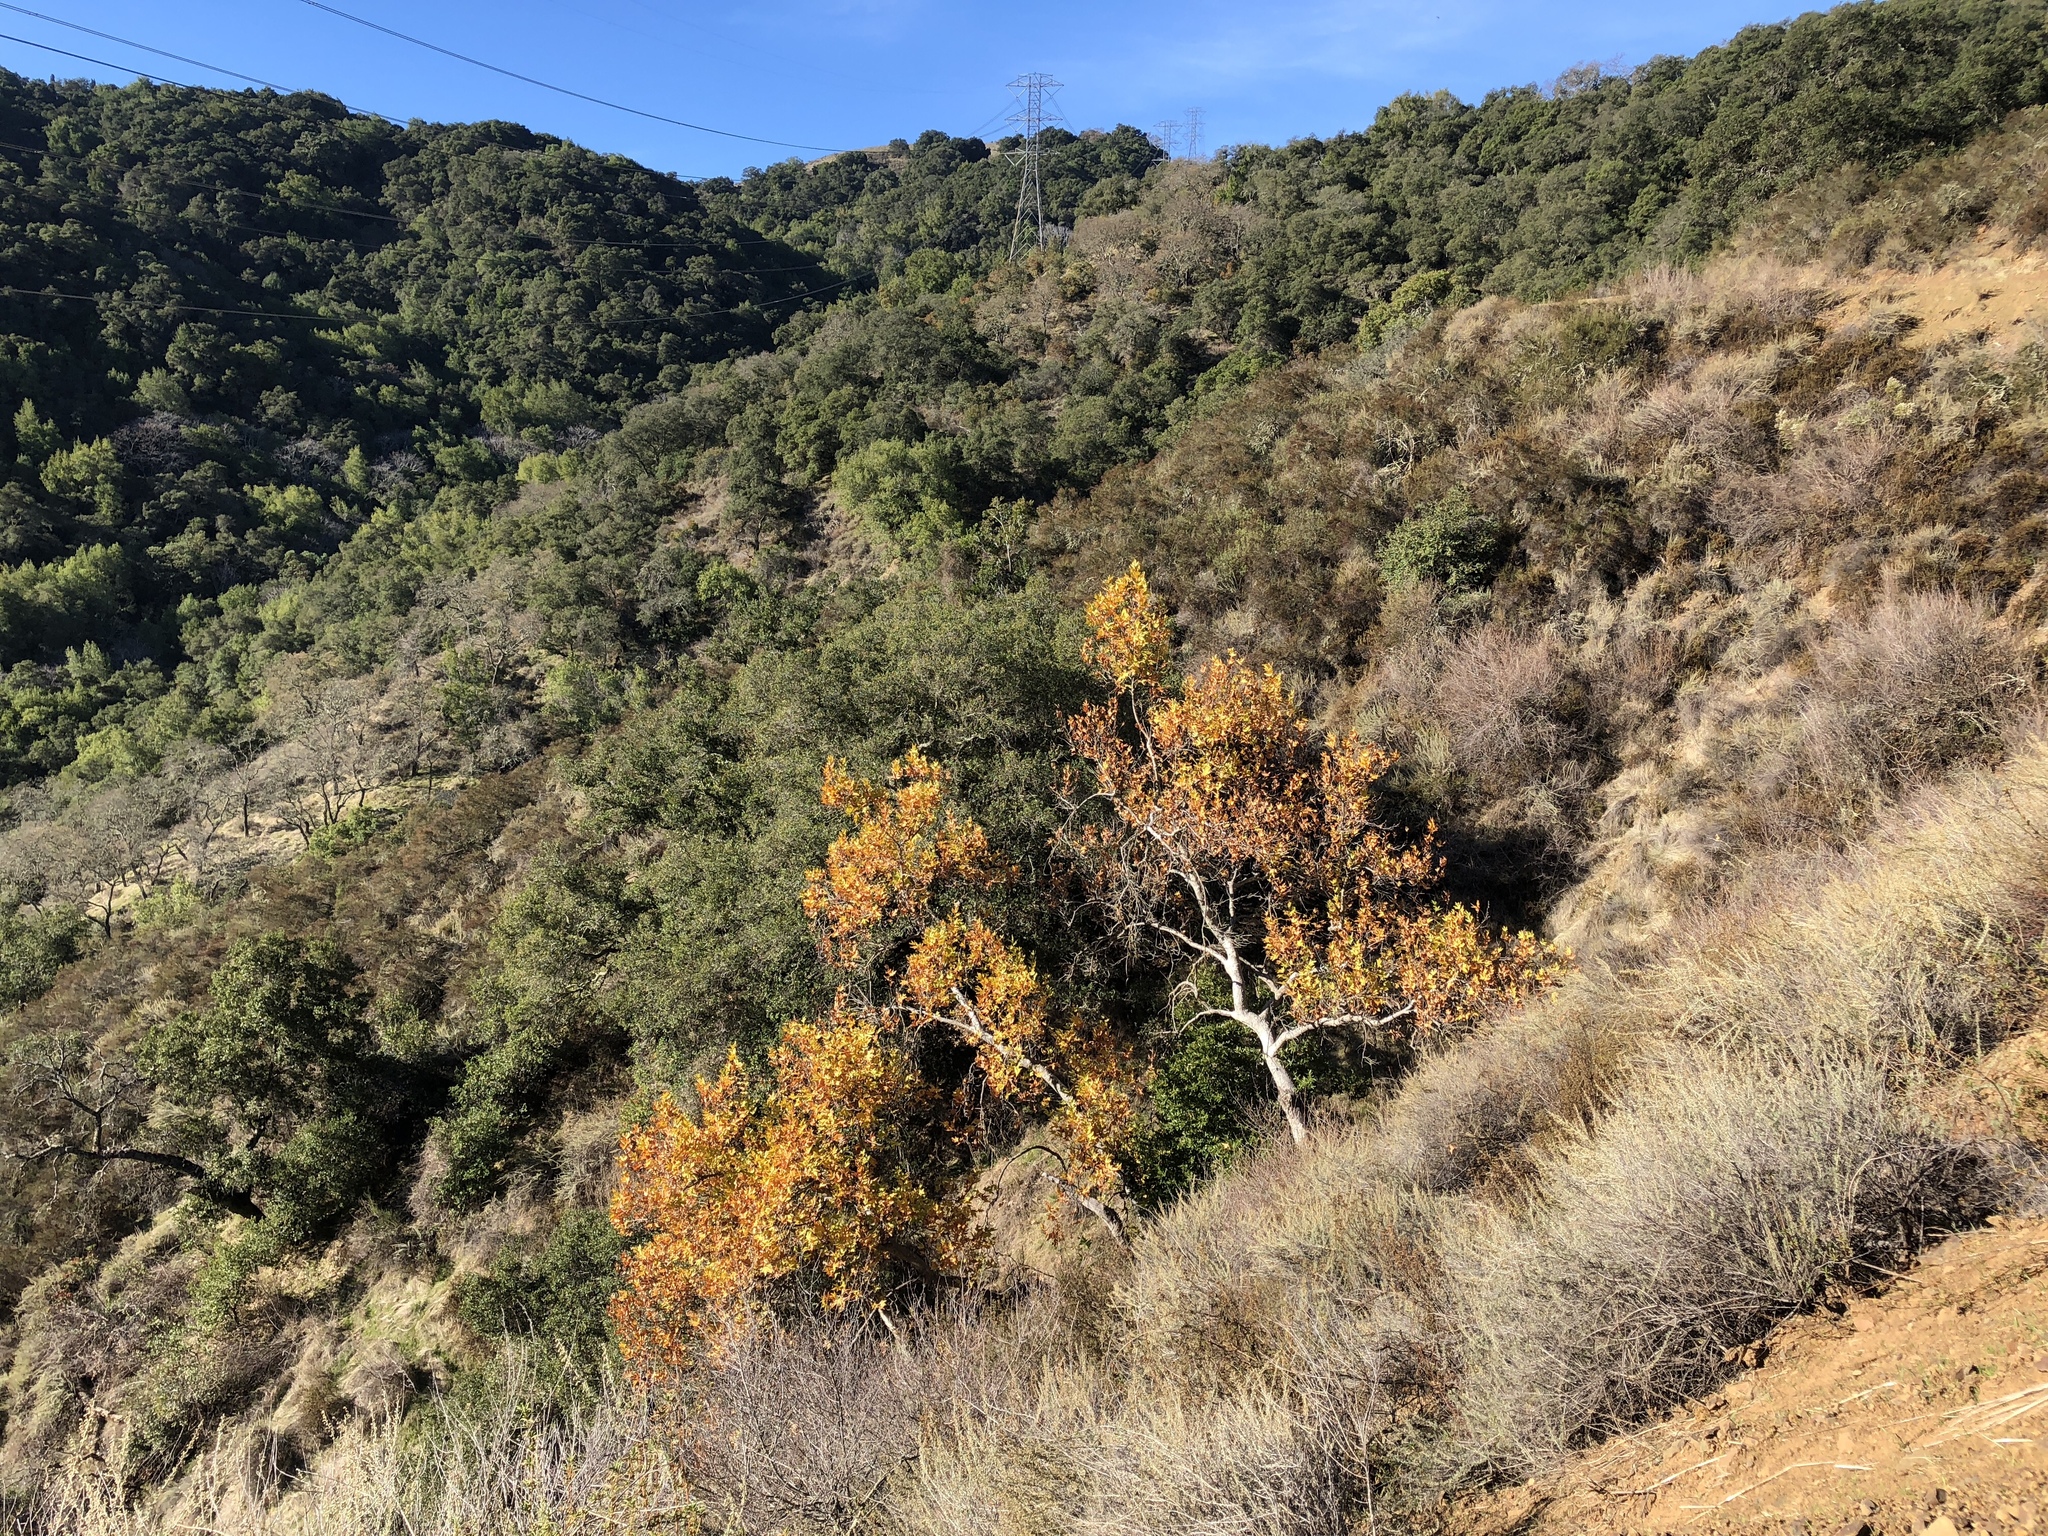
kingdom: Plantae
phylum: Tracheophyta
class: Magnoliopsida
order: Proteales
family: Platanaceae
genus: Platanus
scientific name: Platanus racemosa
